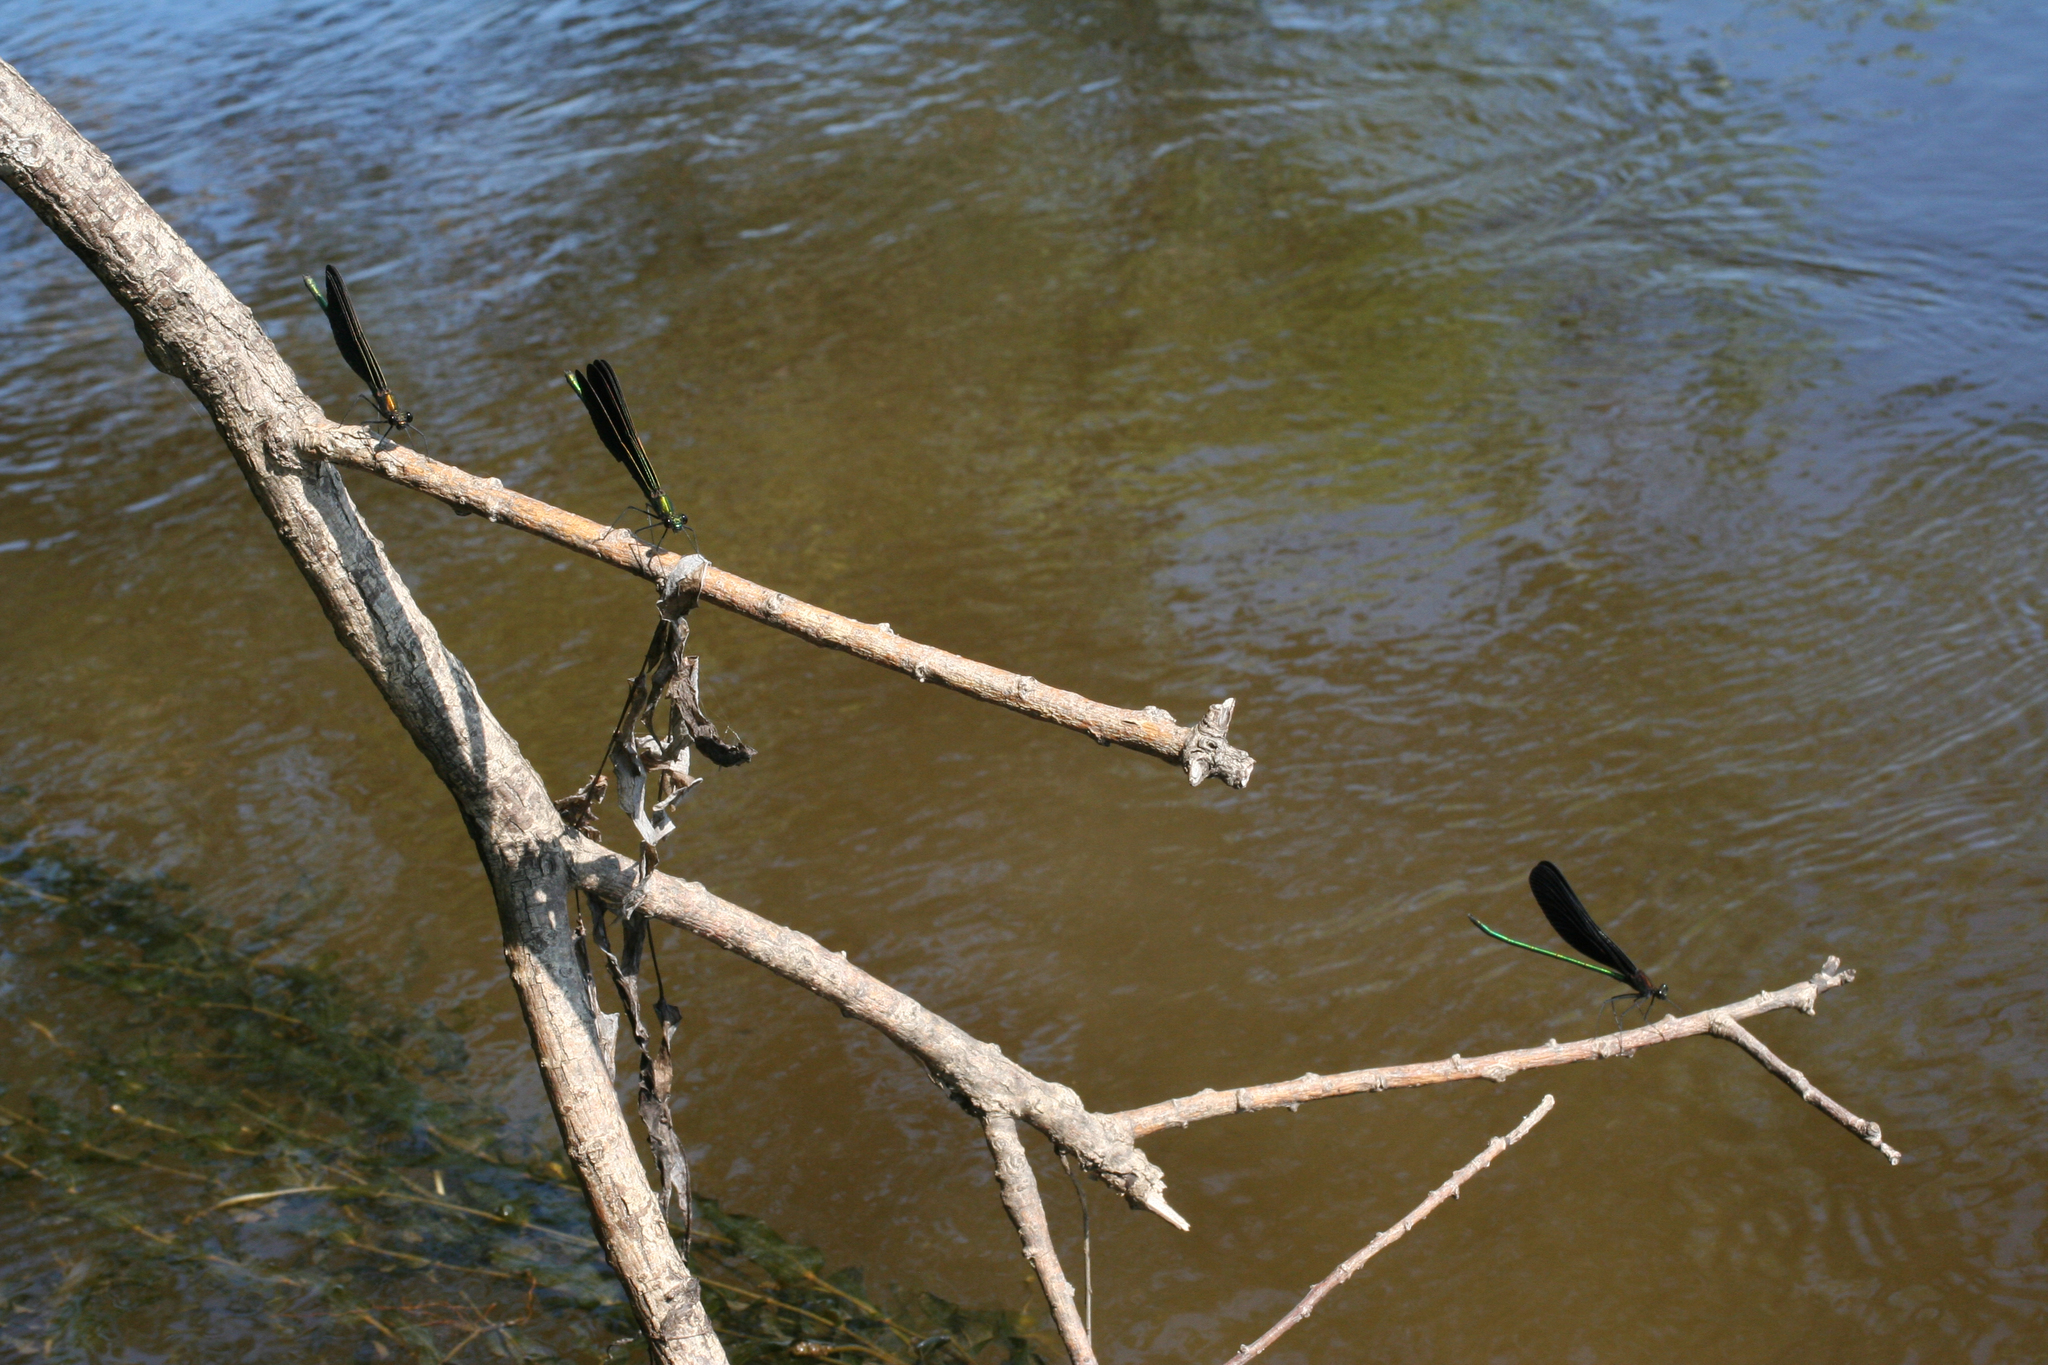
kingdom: Animalia
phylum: Arthropoda
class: Insecta
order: Odonata
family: Calopterygidae
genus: Atrocalopteryx
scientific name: Atrocalopteryx atrata
